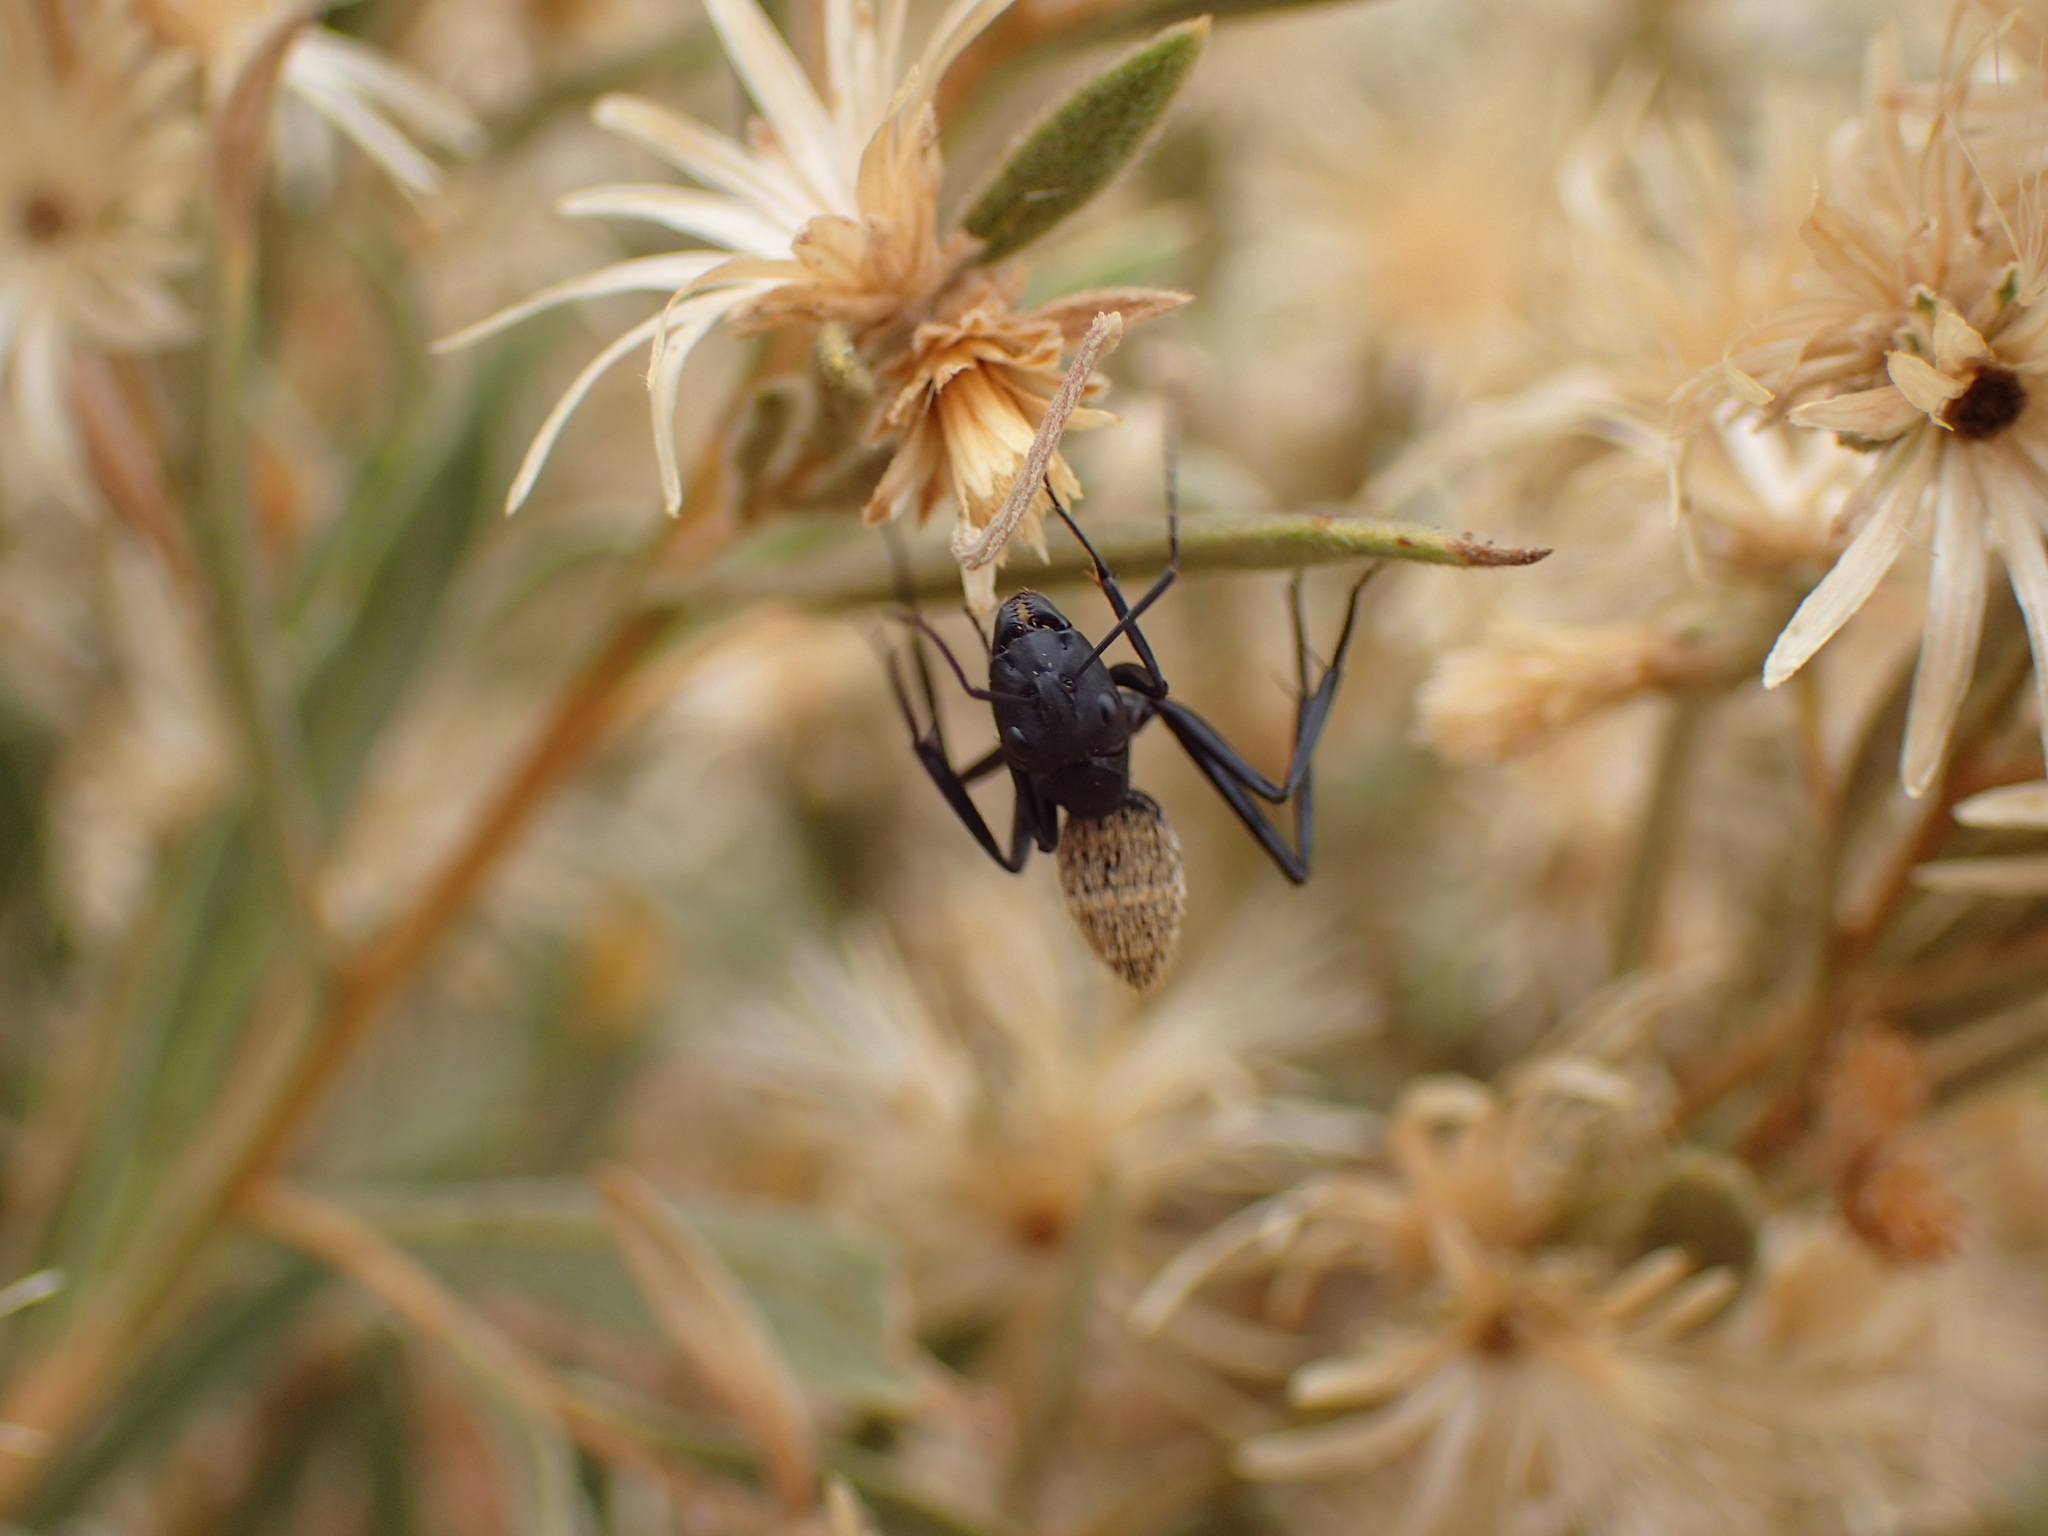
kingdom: Animalia
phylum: Arthropoda
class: Insecta
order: Hymenoptera
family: Formicidae
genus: Camponotus
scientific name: Camponotus fulvopilosus
